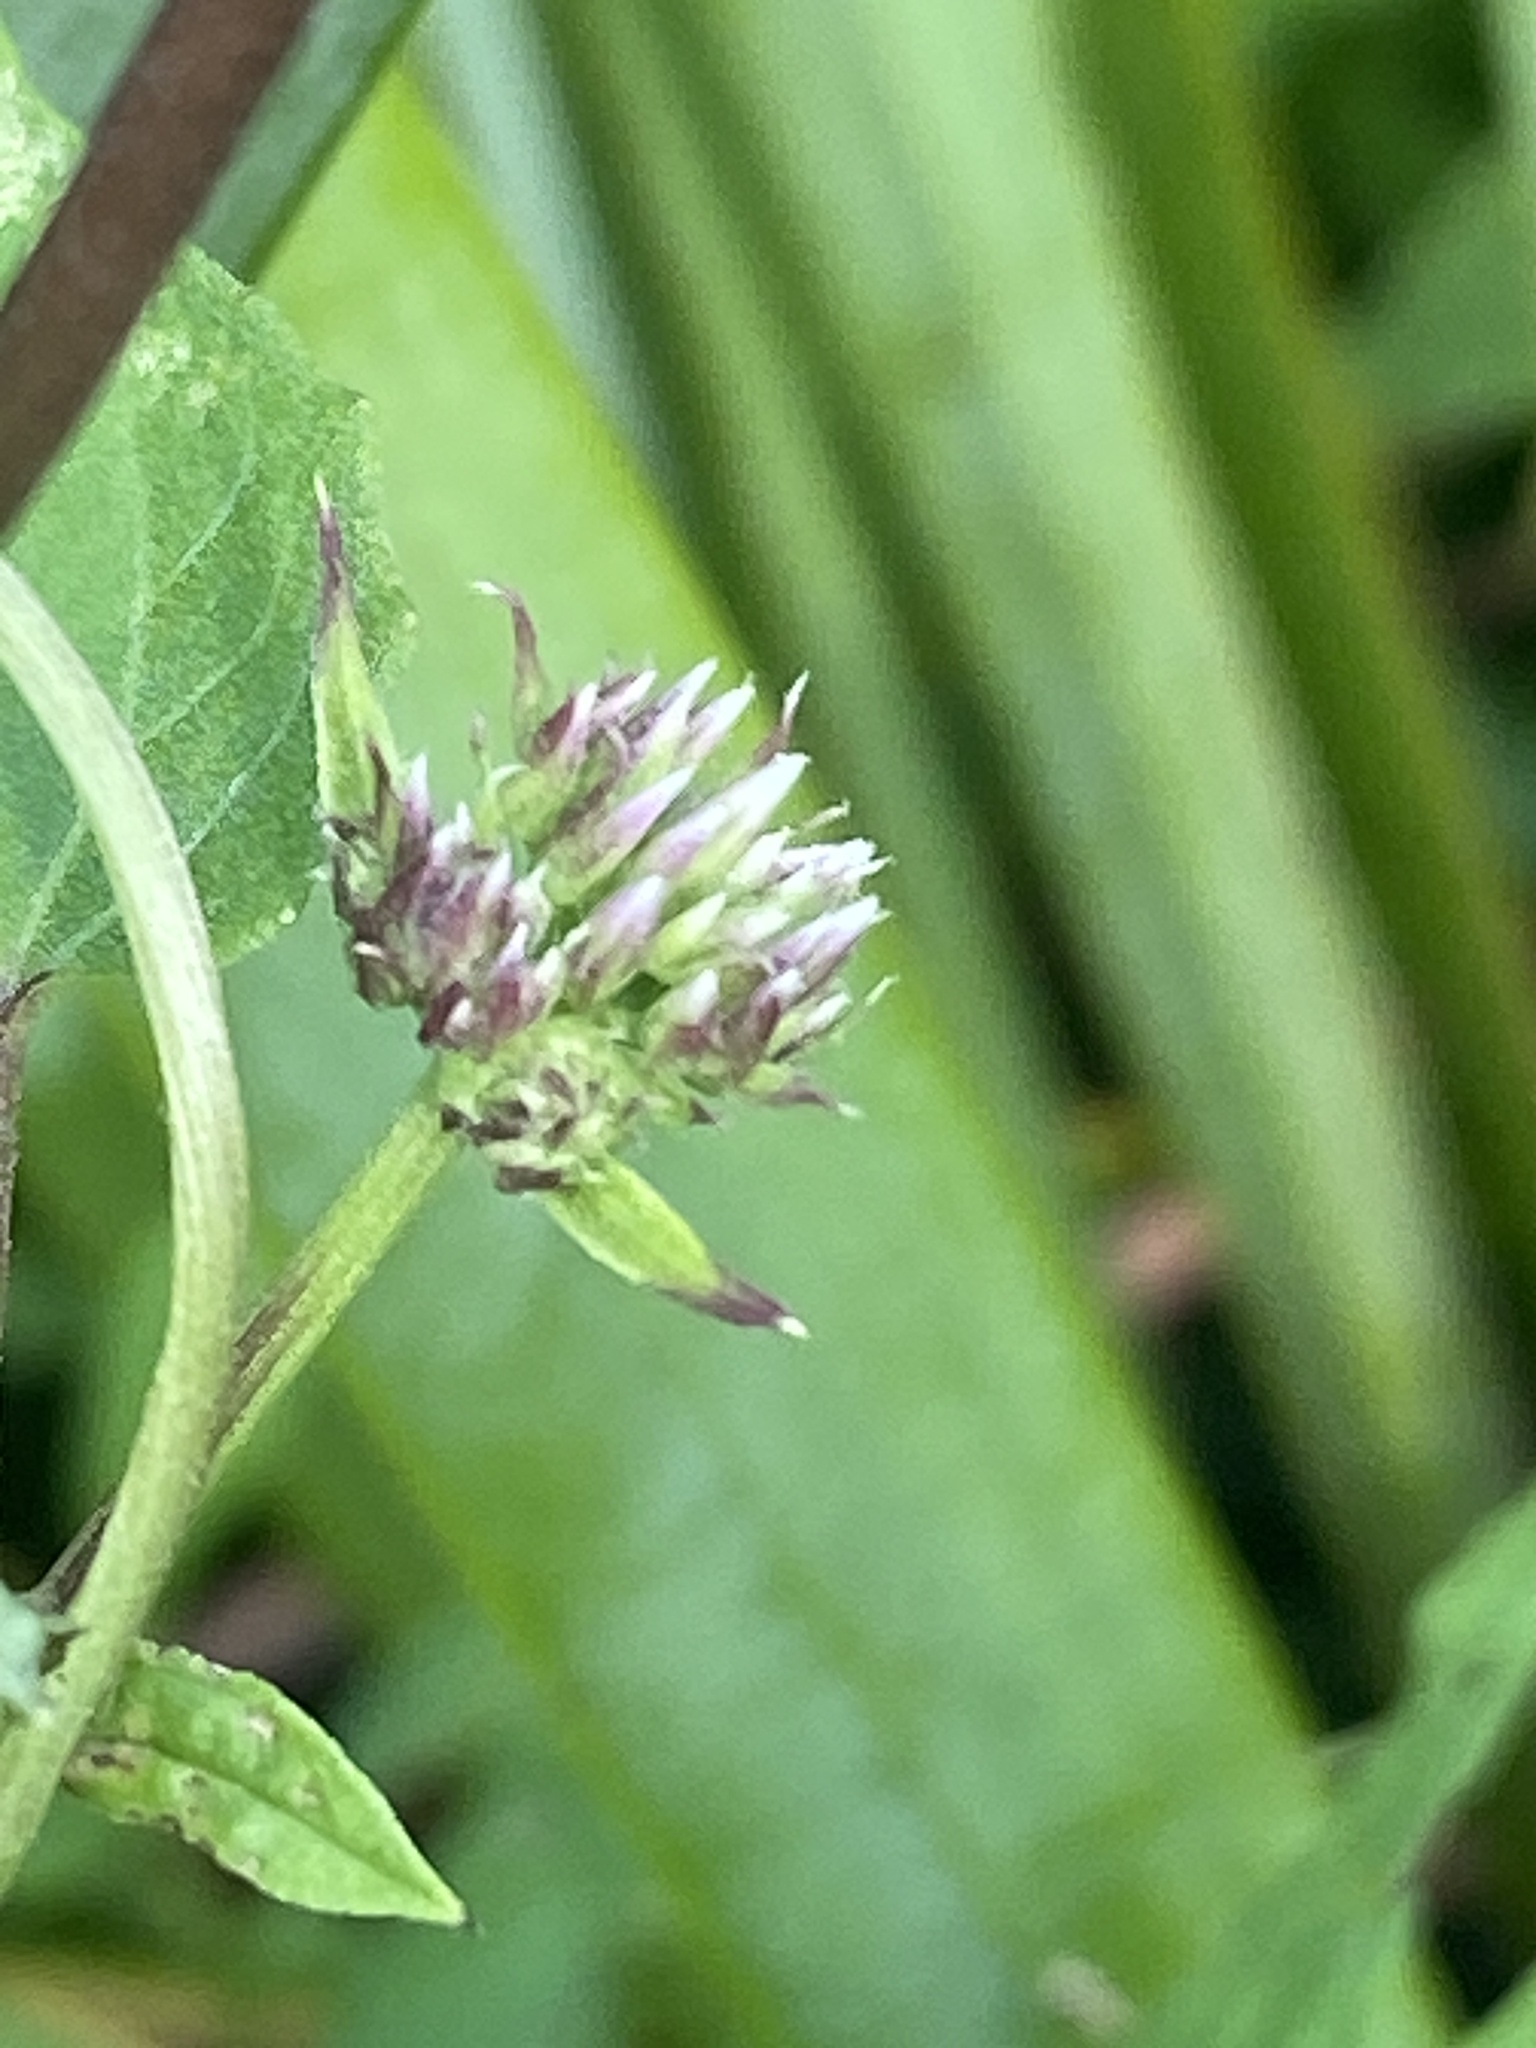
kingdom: Plantae
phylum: Tracheophyta
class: Magnoliopsida
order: Asterales
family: Asteraceae
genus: Mikania
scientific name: Mikania scandens
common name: Climbing hempvine
